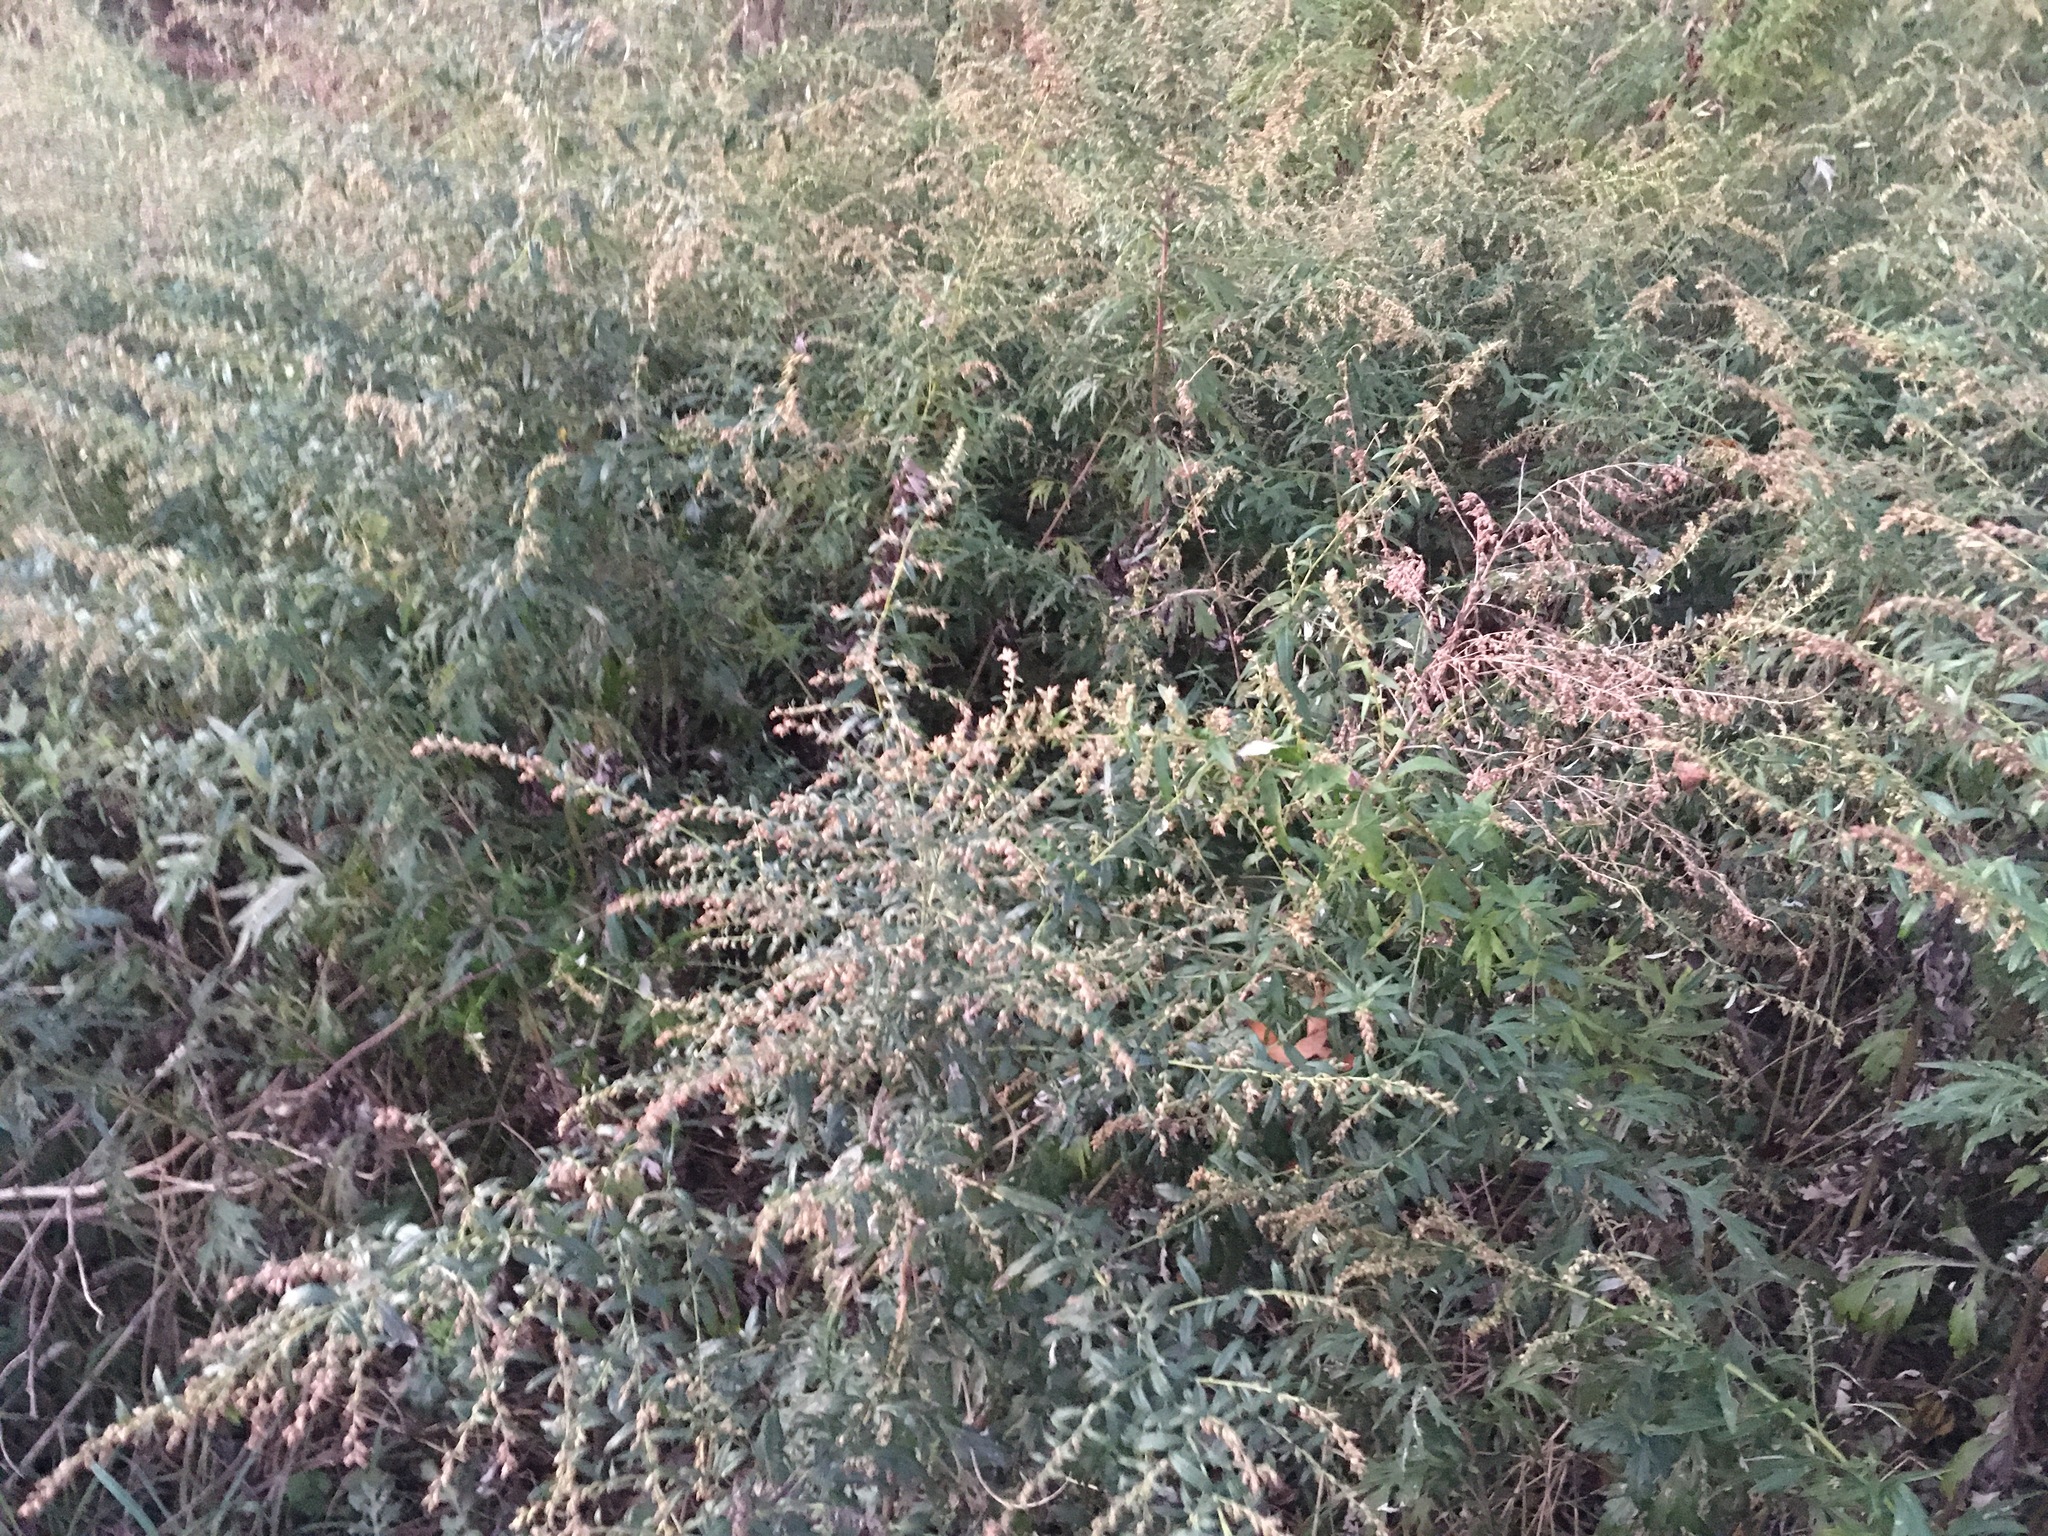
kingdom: Plantae
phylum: Tracheophyta
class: Magnoliopsida
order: Asterales
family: Asteraceae
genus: Artemisia
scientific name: Artemisia vulgaris
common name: Mugwort
